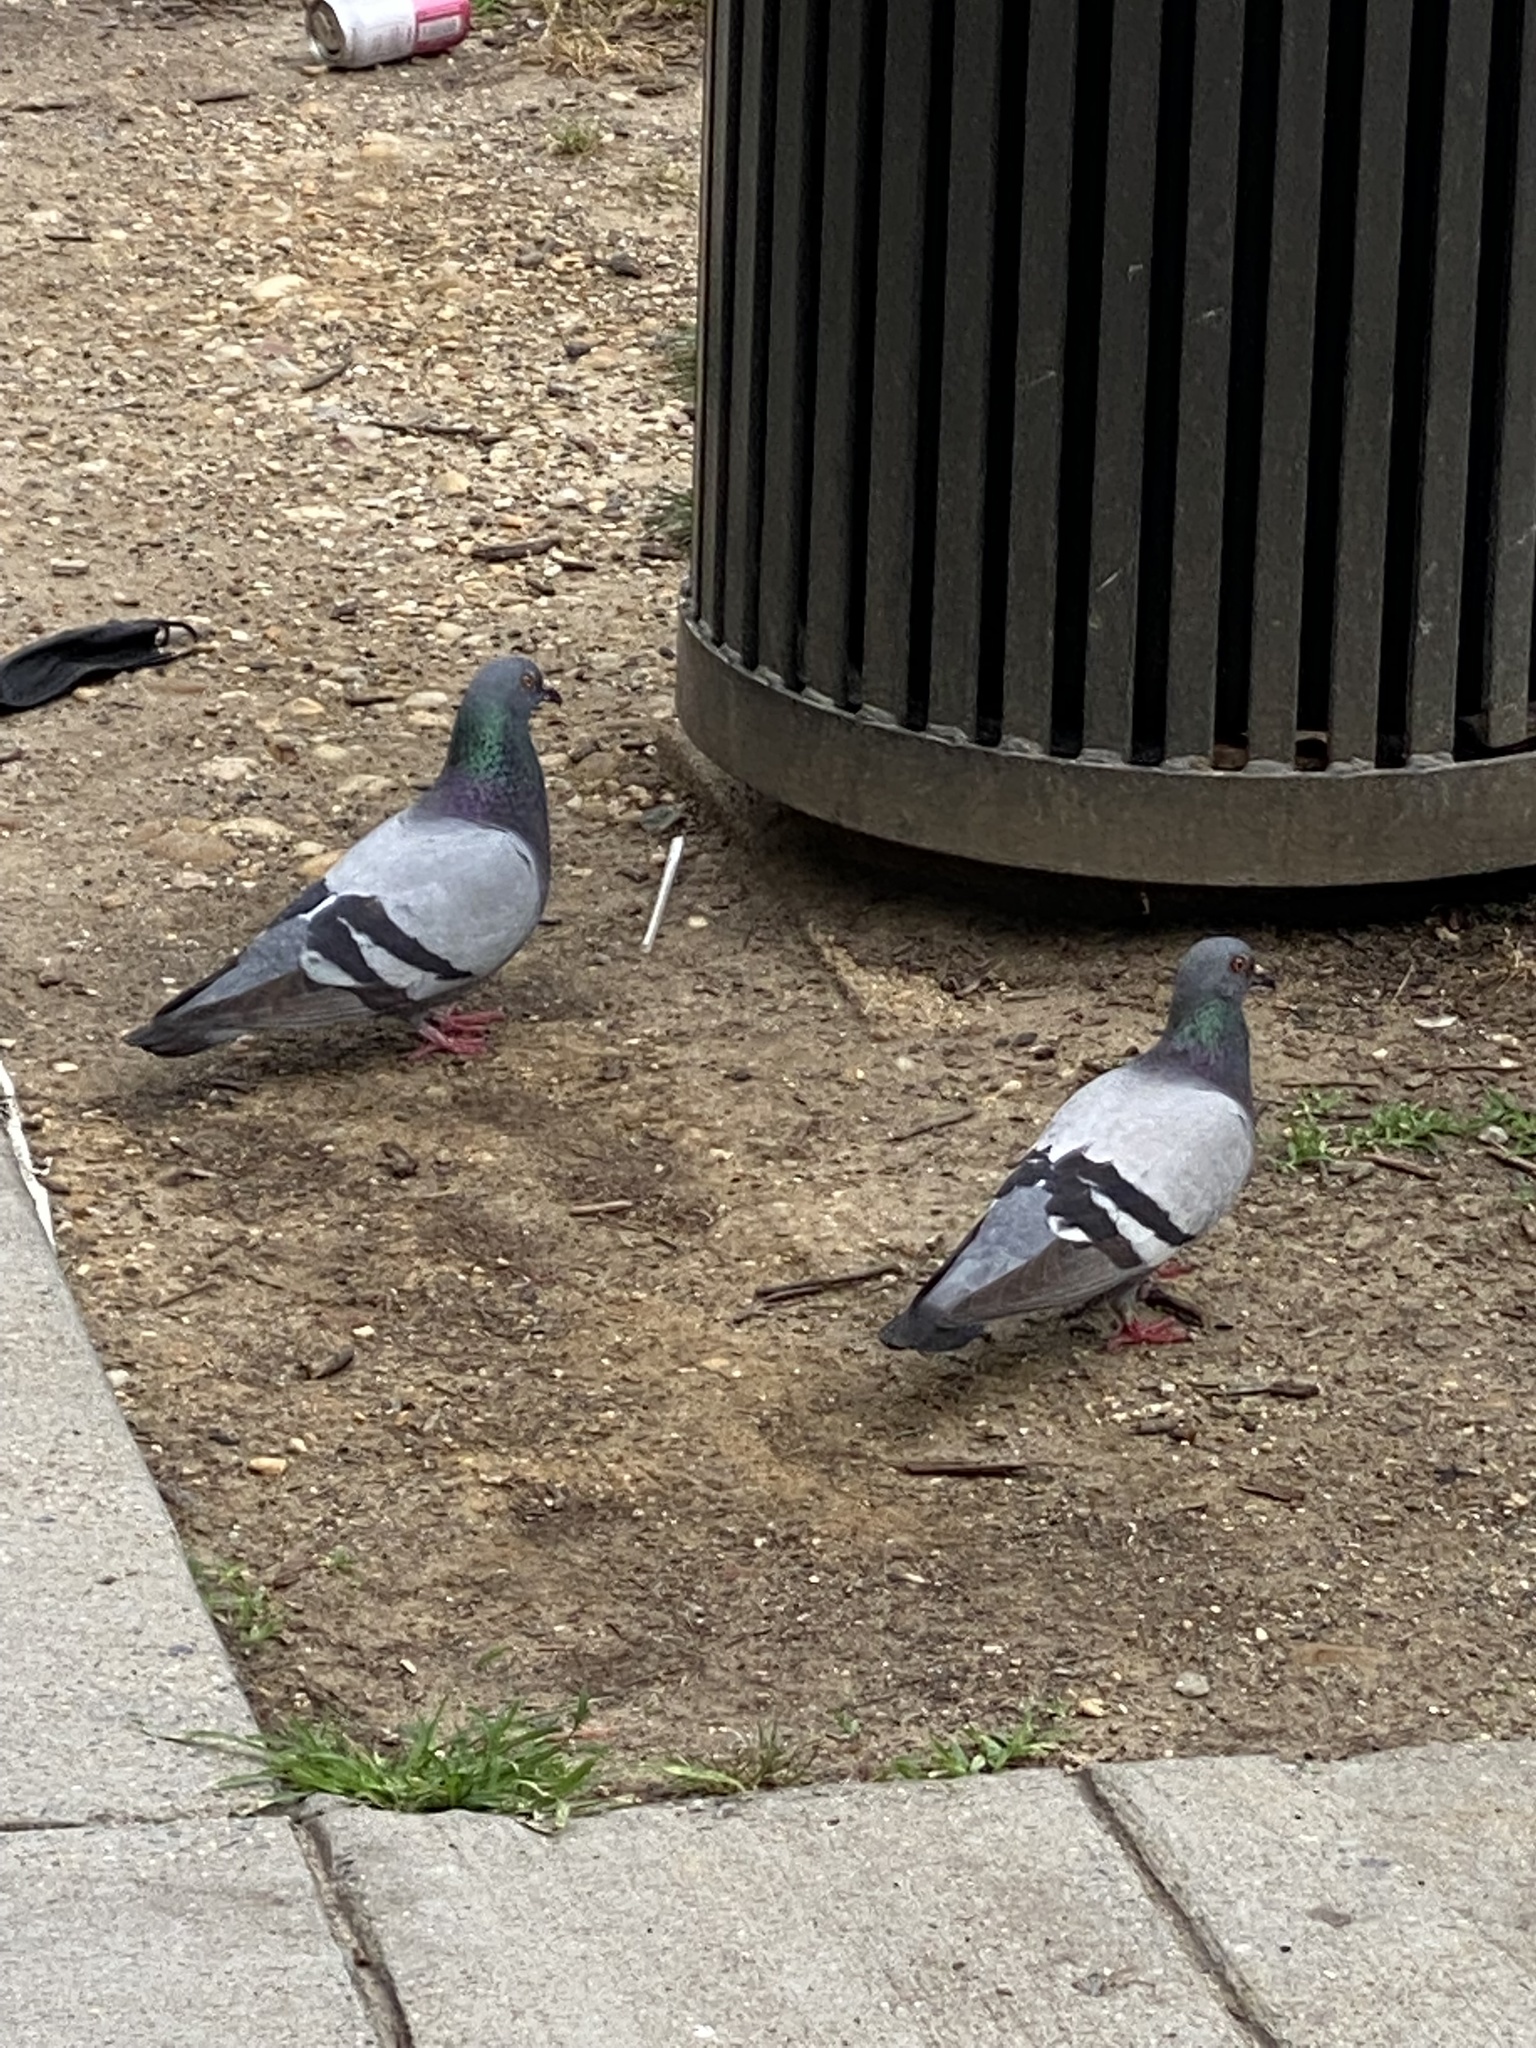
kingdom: Animalia
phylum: Chordata
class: Aves
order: Columbiformes
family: Columbidae
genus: Columba
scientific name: Columba livia
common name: Rock pigeon
